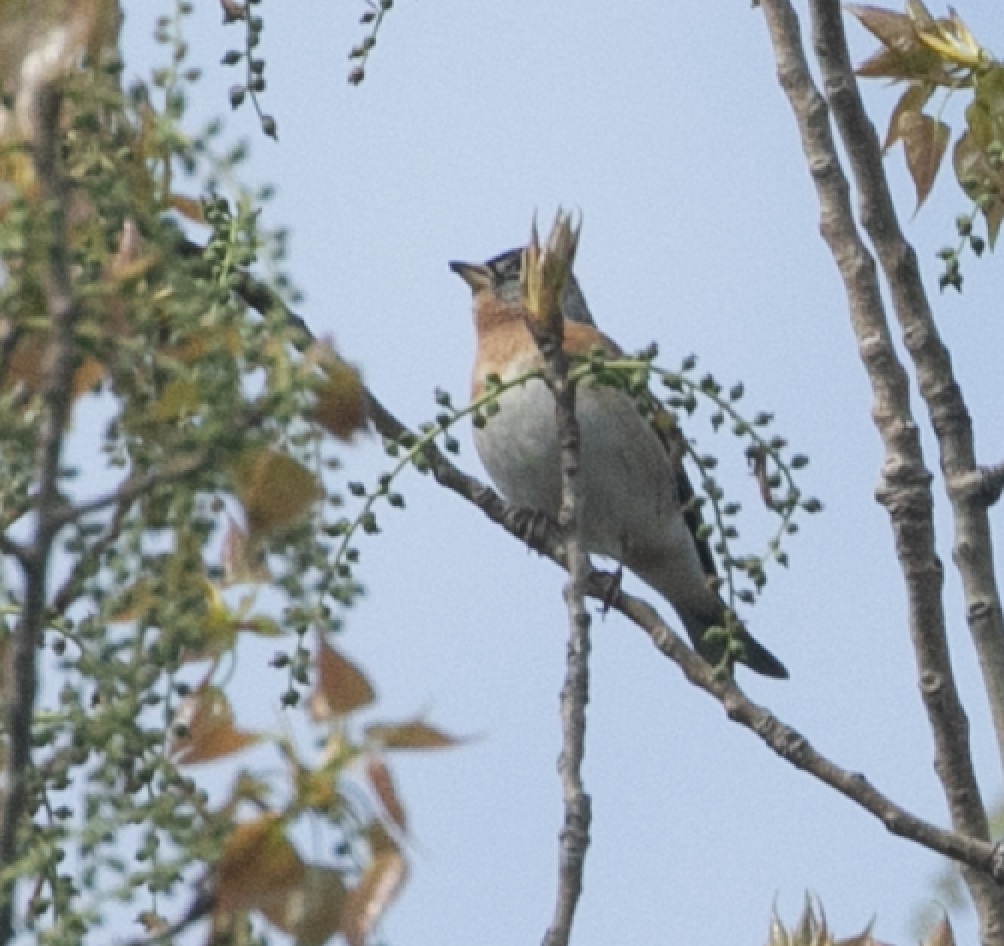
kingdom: Animalia
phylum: Chordata
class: Aves
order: Passeriformes
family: Fringillidae
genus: Fringilla
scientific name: Fringilla montifringilla
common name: Brambling
